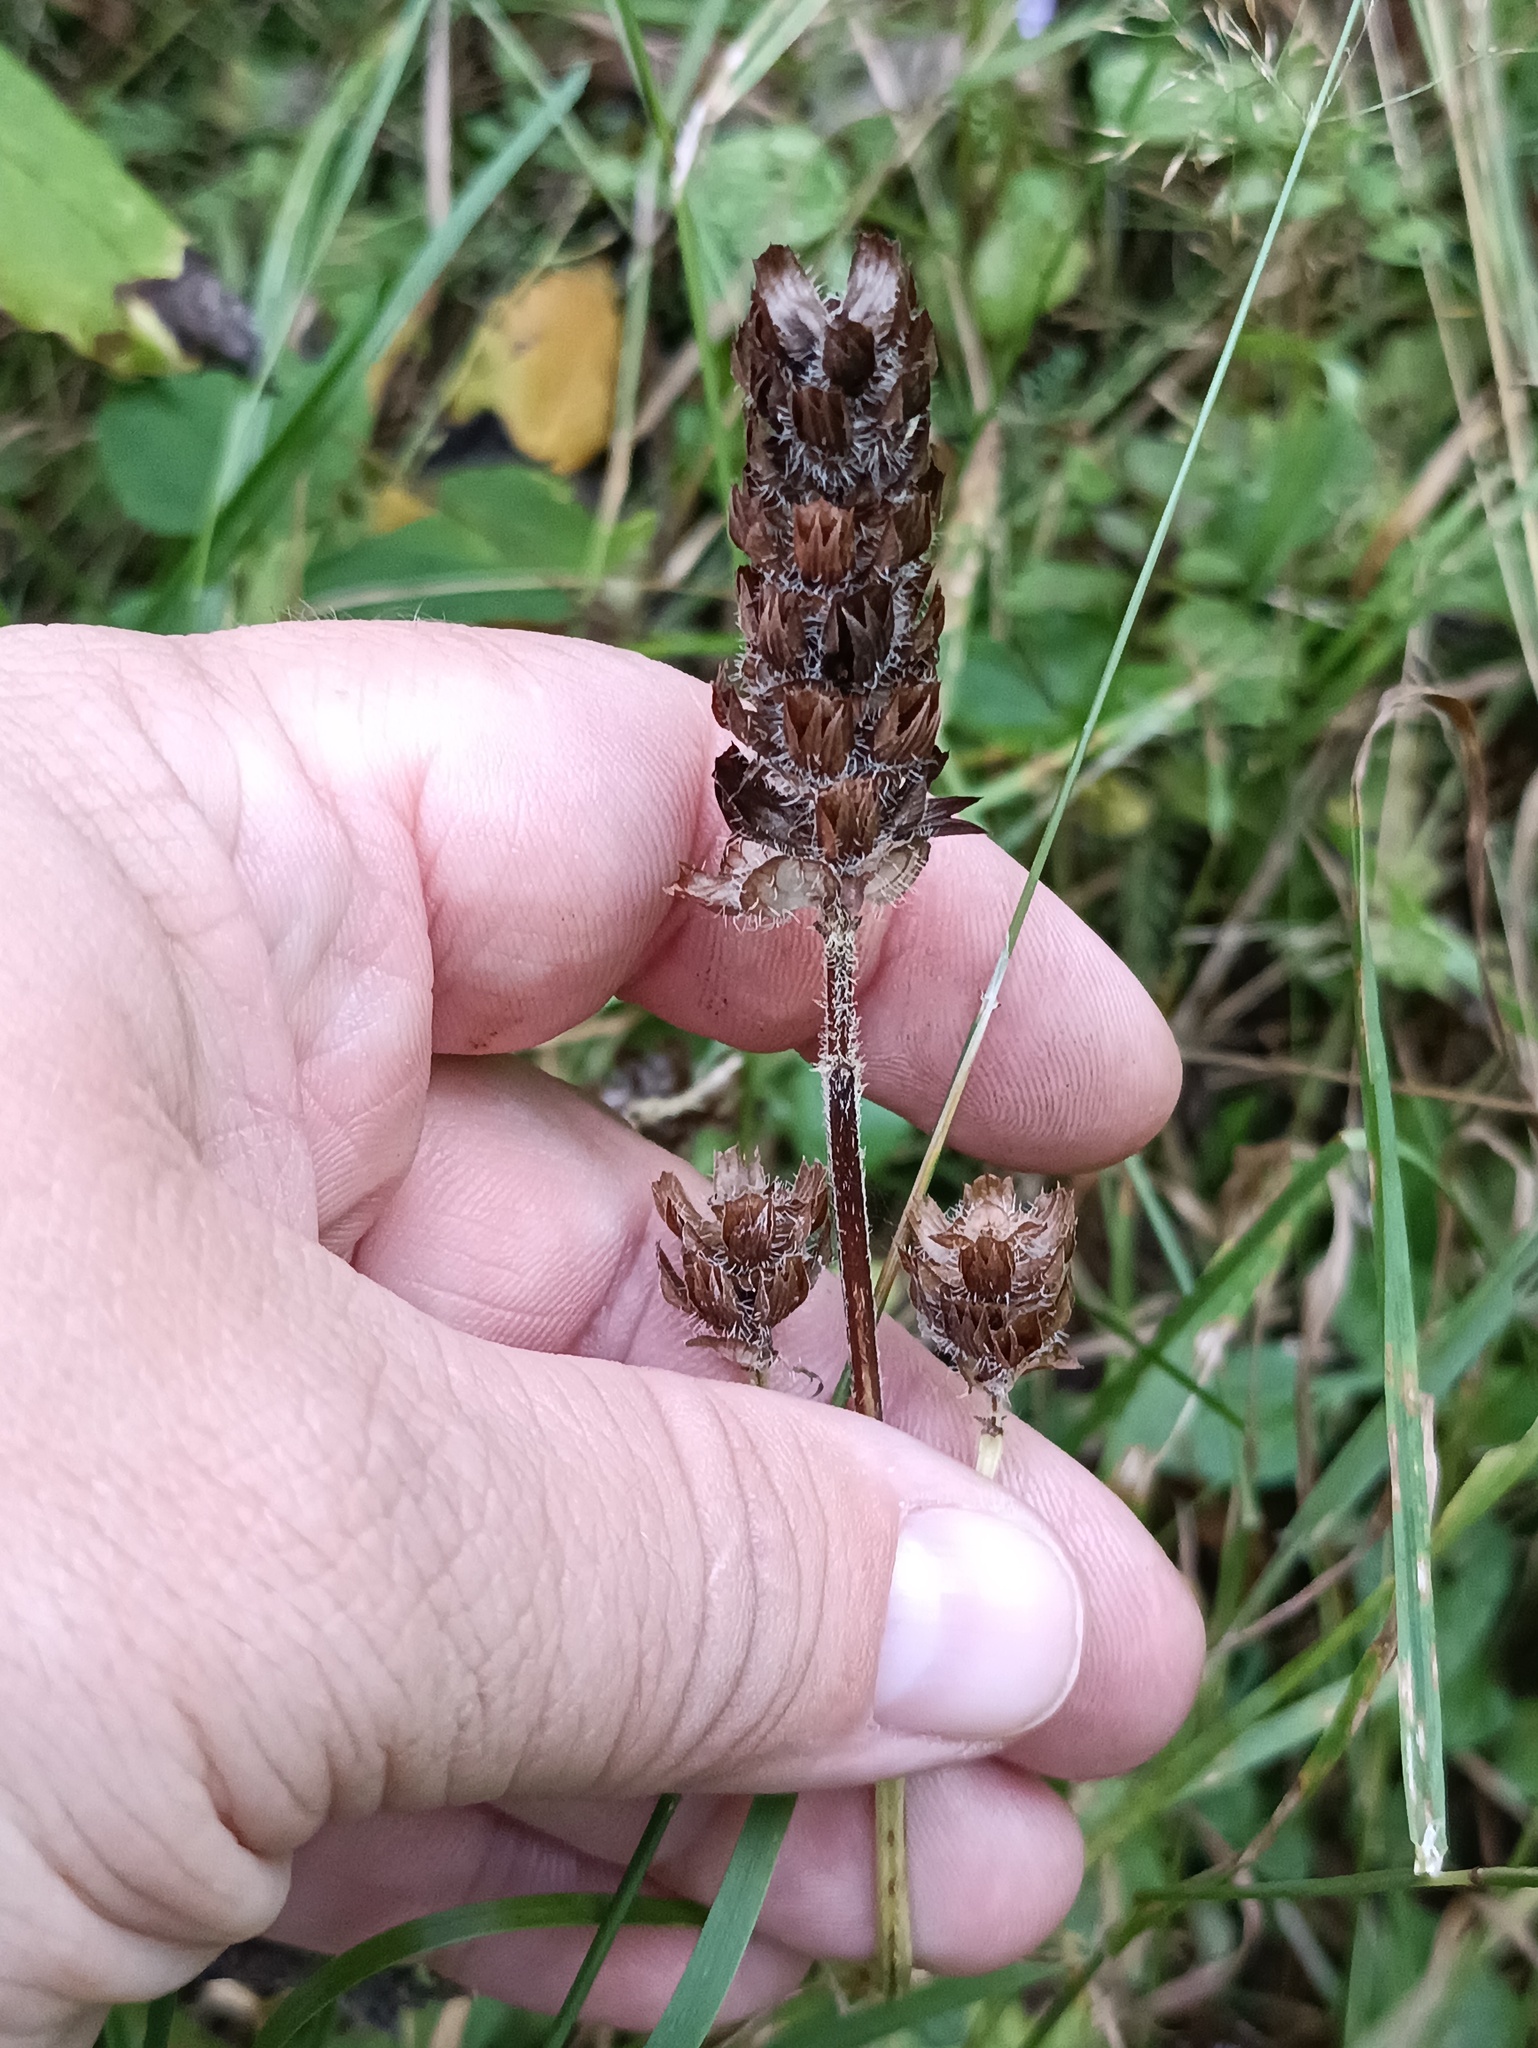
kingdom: Plantae
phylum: Tracheophyta
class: Magnoliopsida
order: Lamiales
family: Lamiaceae
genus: Prunella
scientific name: Prunella vulgaris
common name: Heal-all
